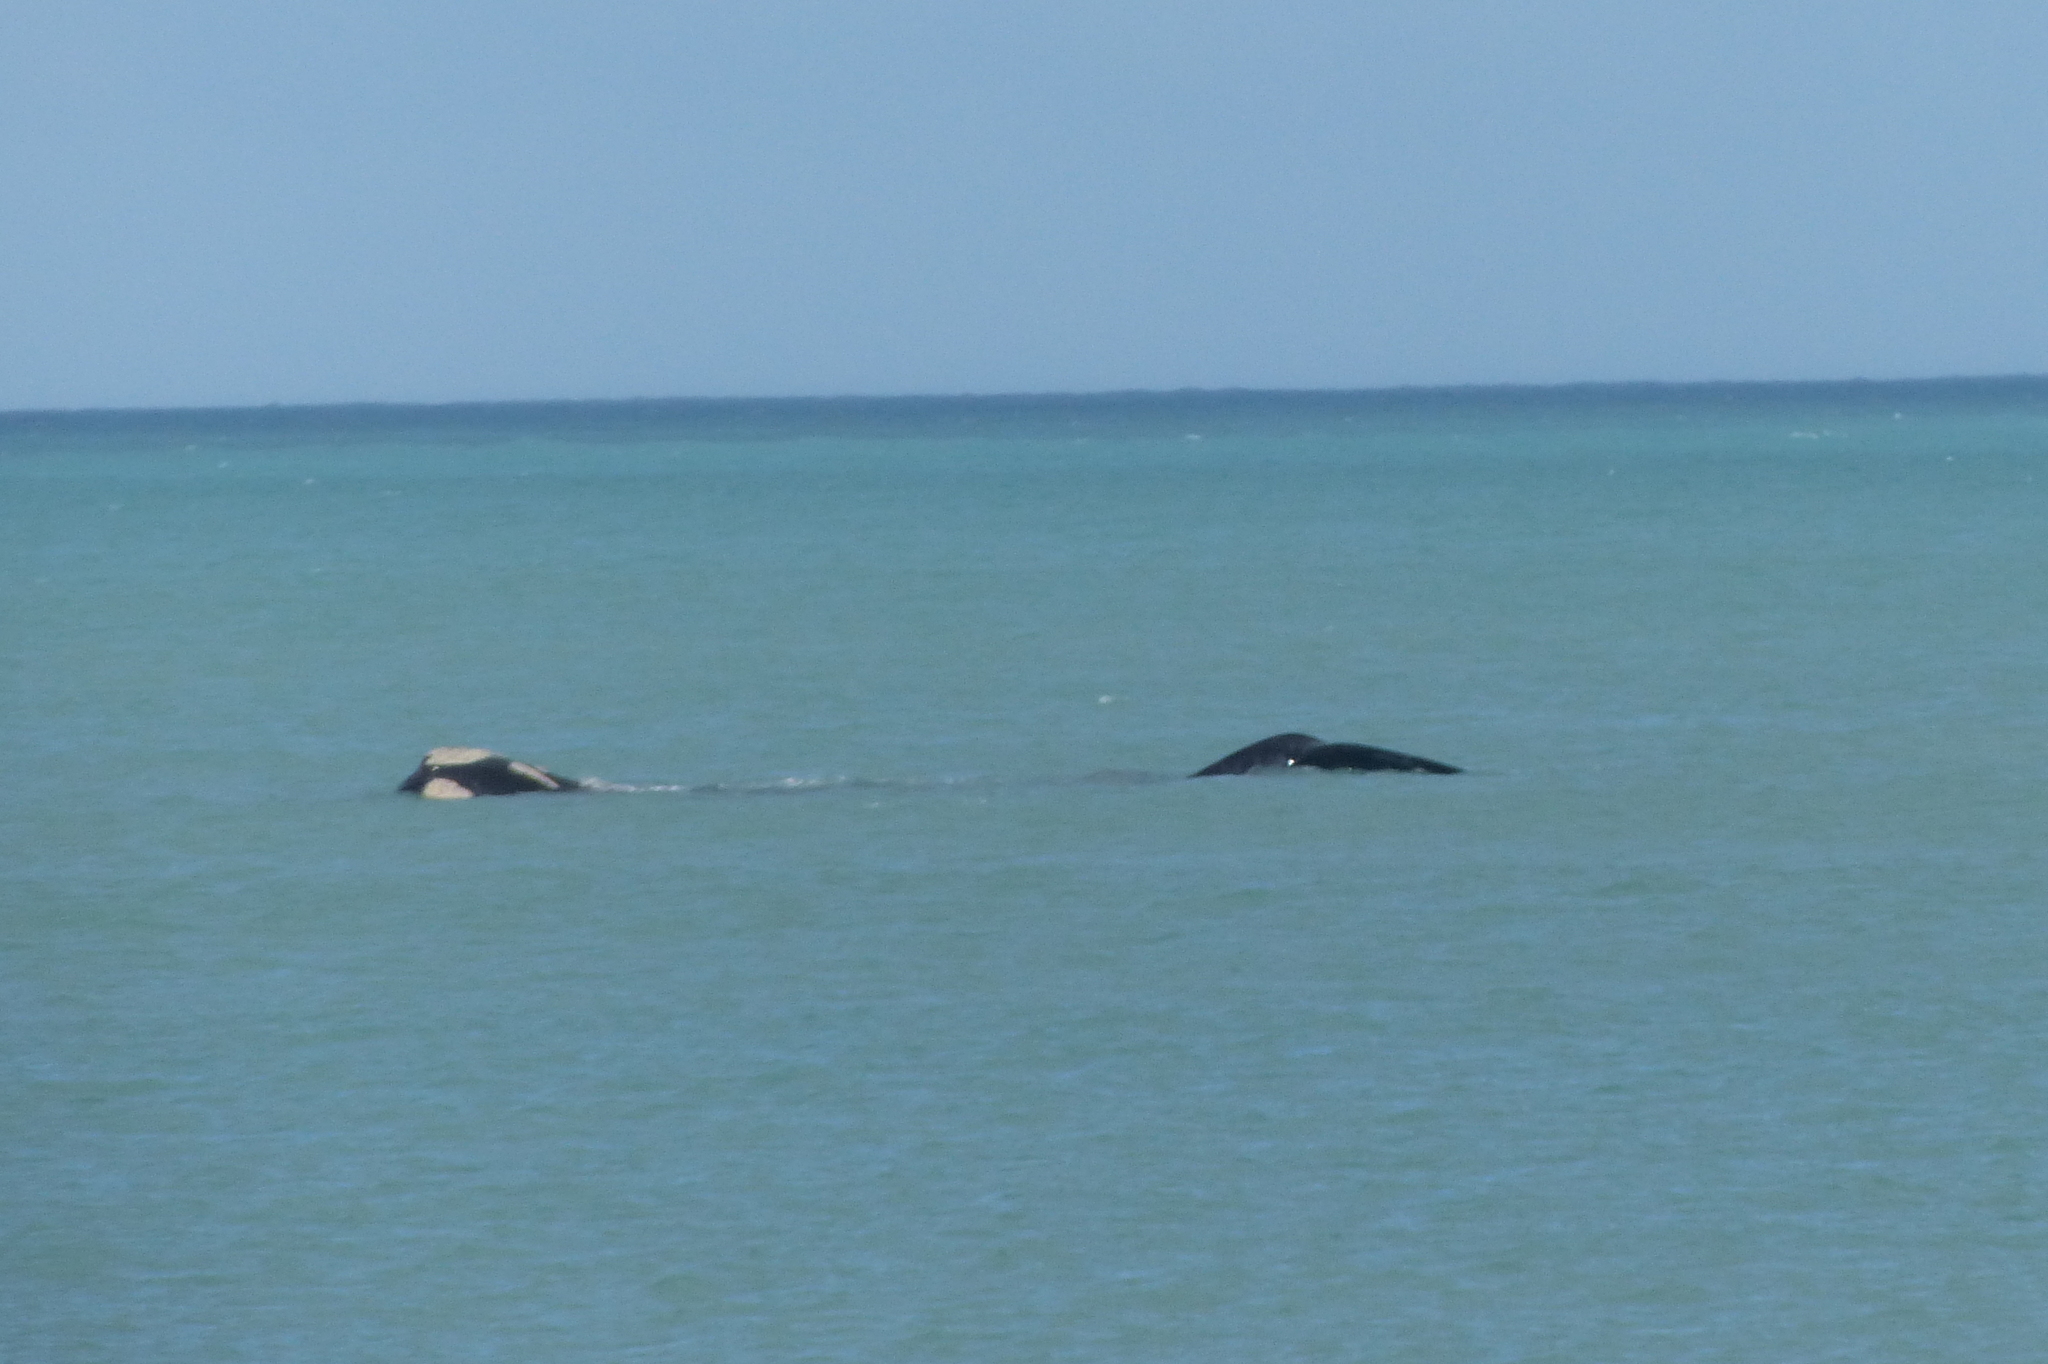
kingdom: Animalia
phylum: Chordata
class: Mammalia
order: Cetacea
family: Balaenidae
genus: Eubalaena
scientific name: Eubalaena australis
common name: Southern right whale
